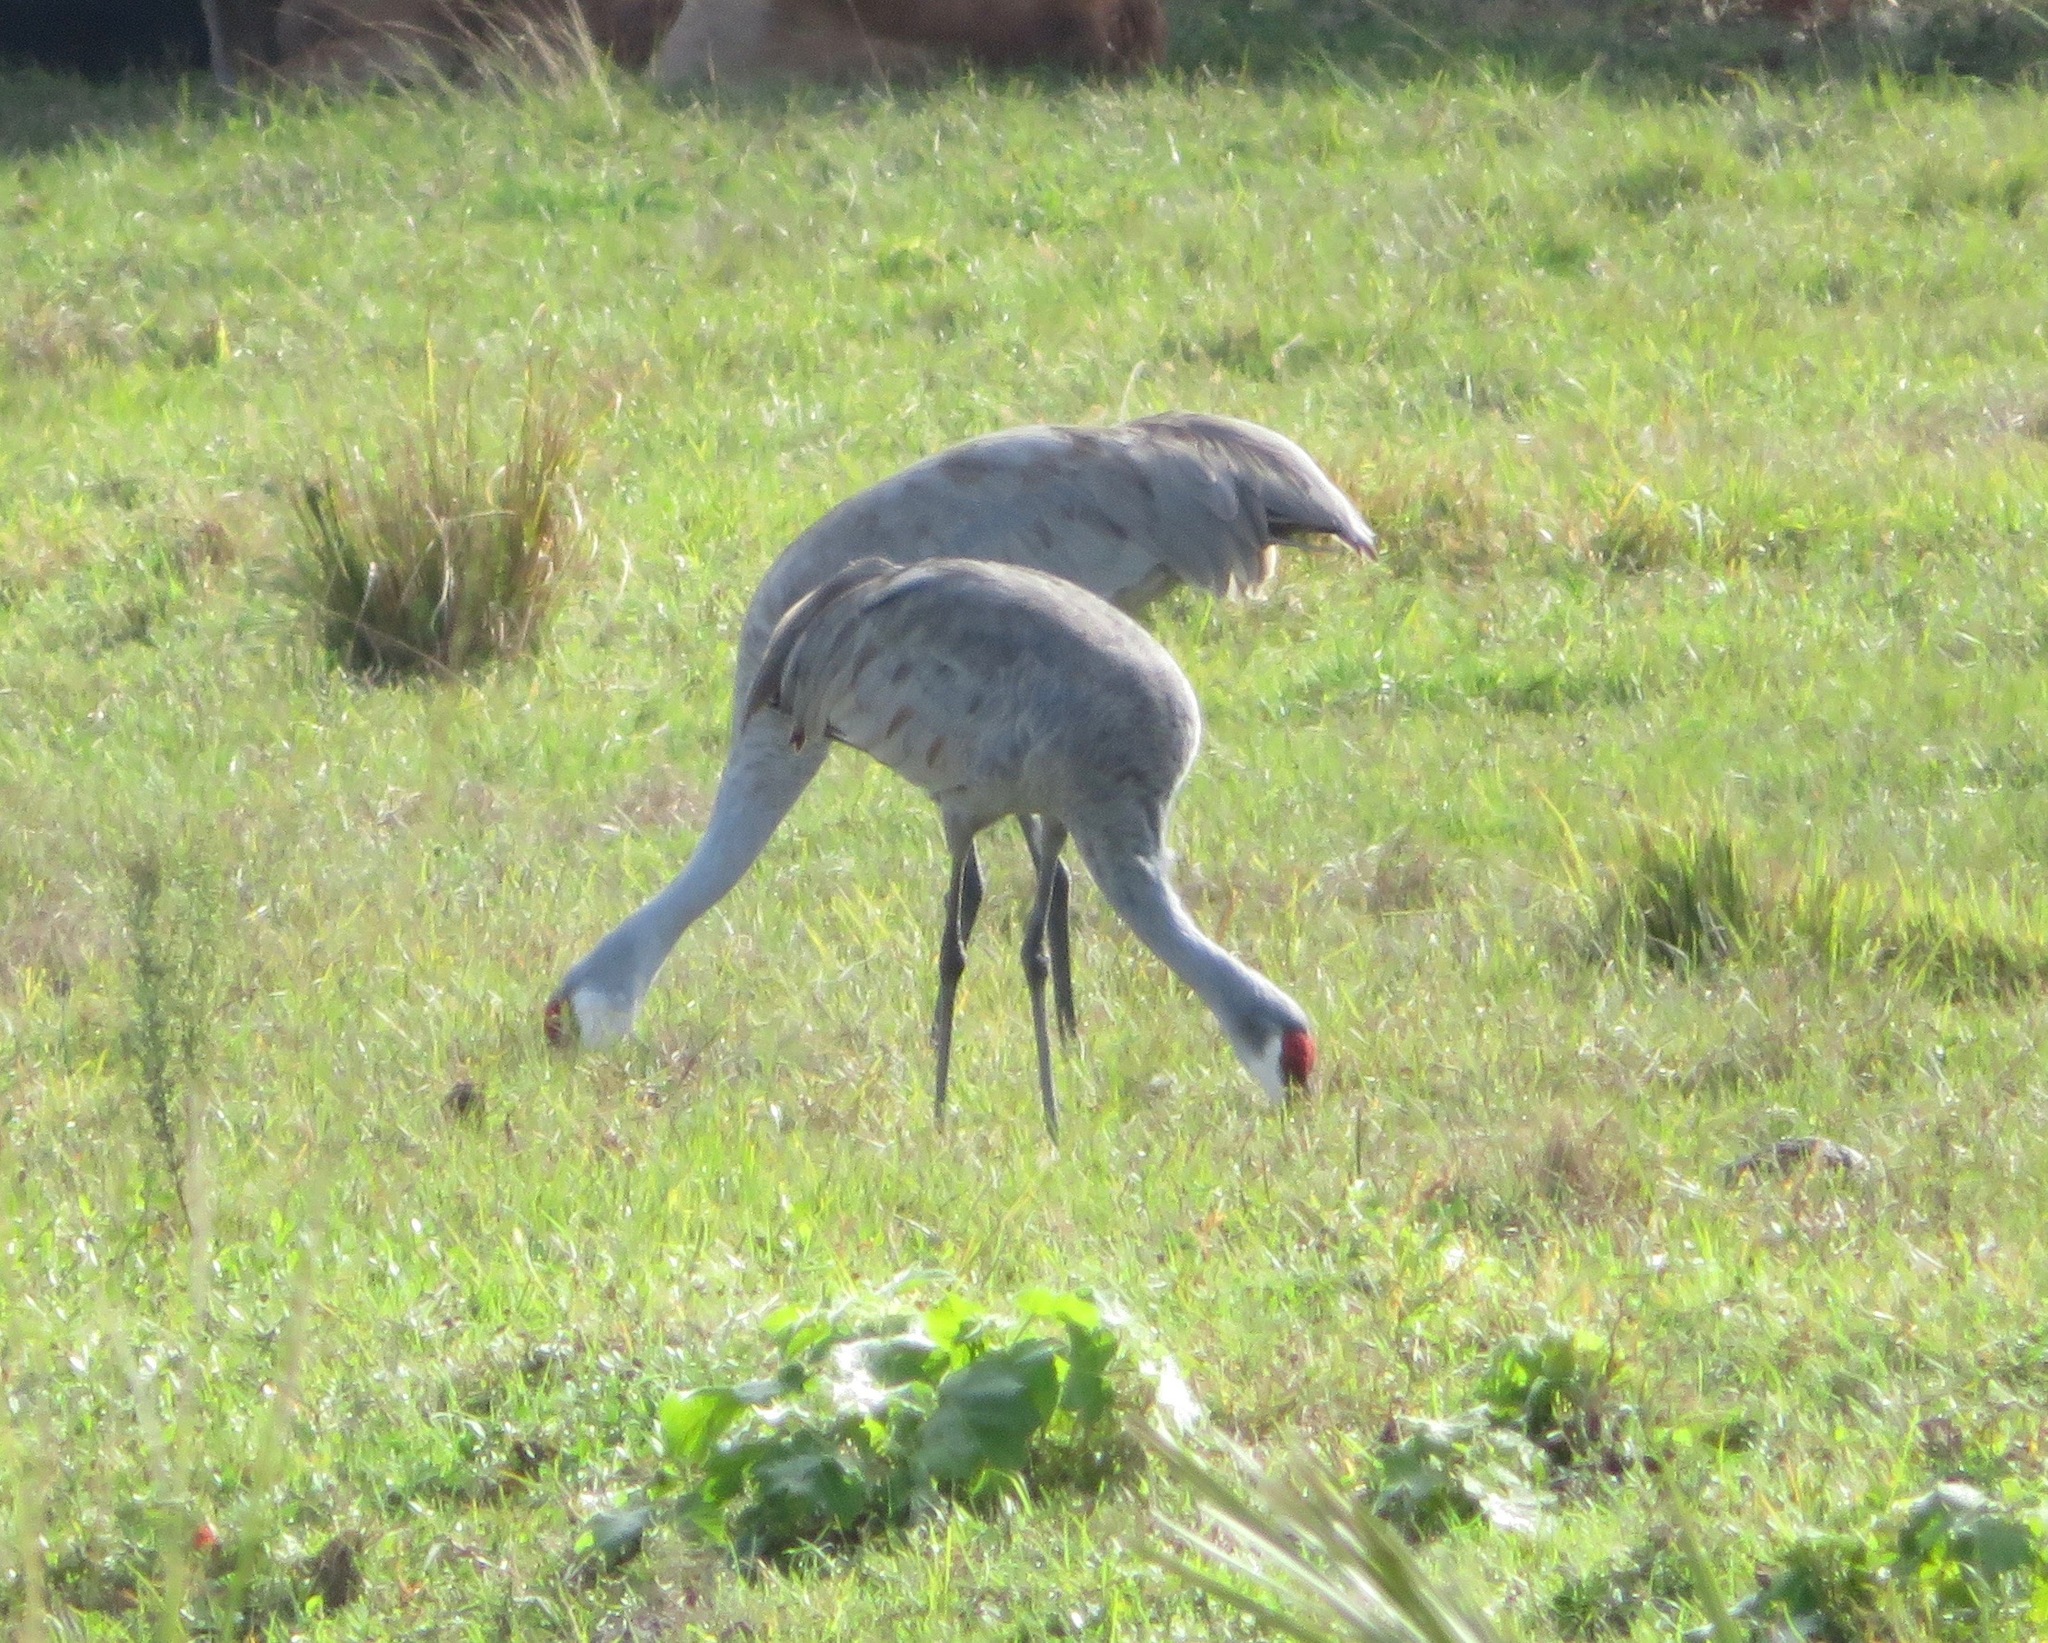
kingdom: Animalia
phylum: Chordata
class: Aves
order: Gruiformes
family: Gruidae
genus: Grus
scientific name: Grus canadensis
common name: Sandhill crane
